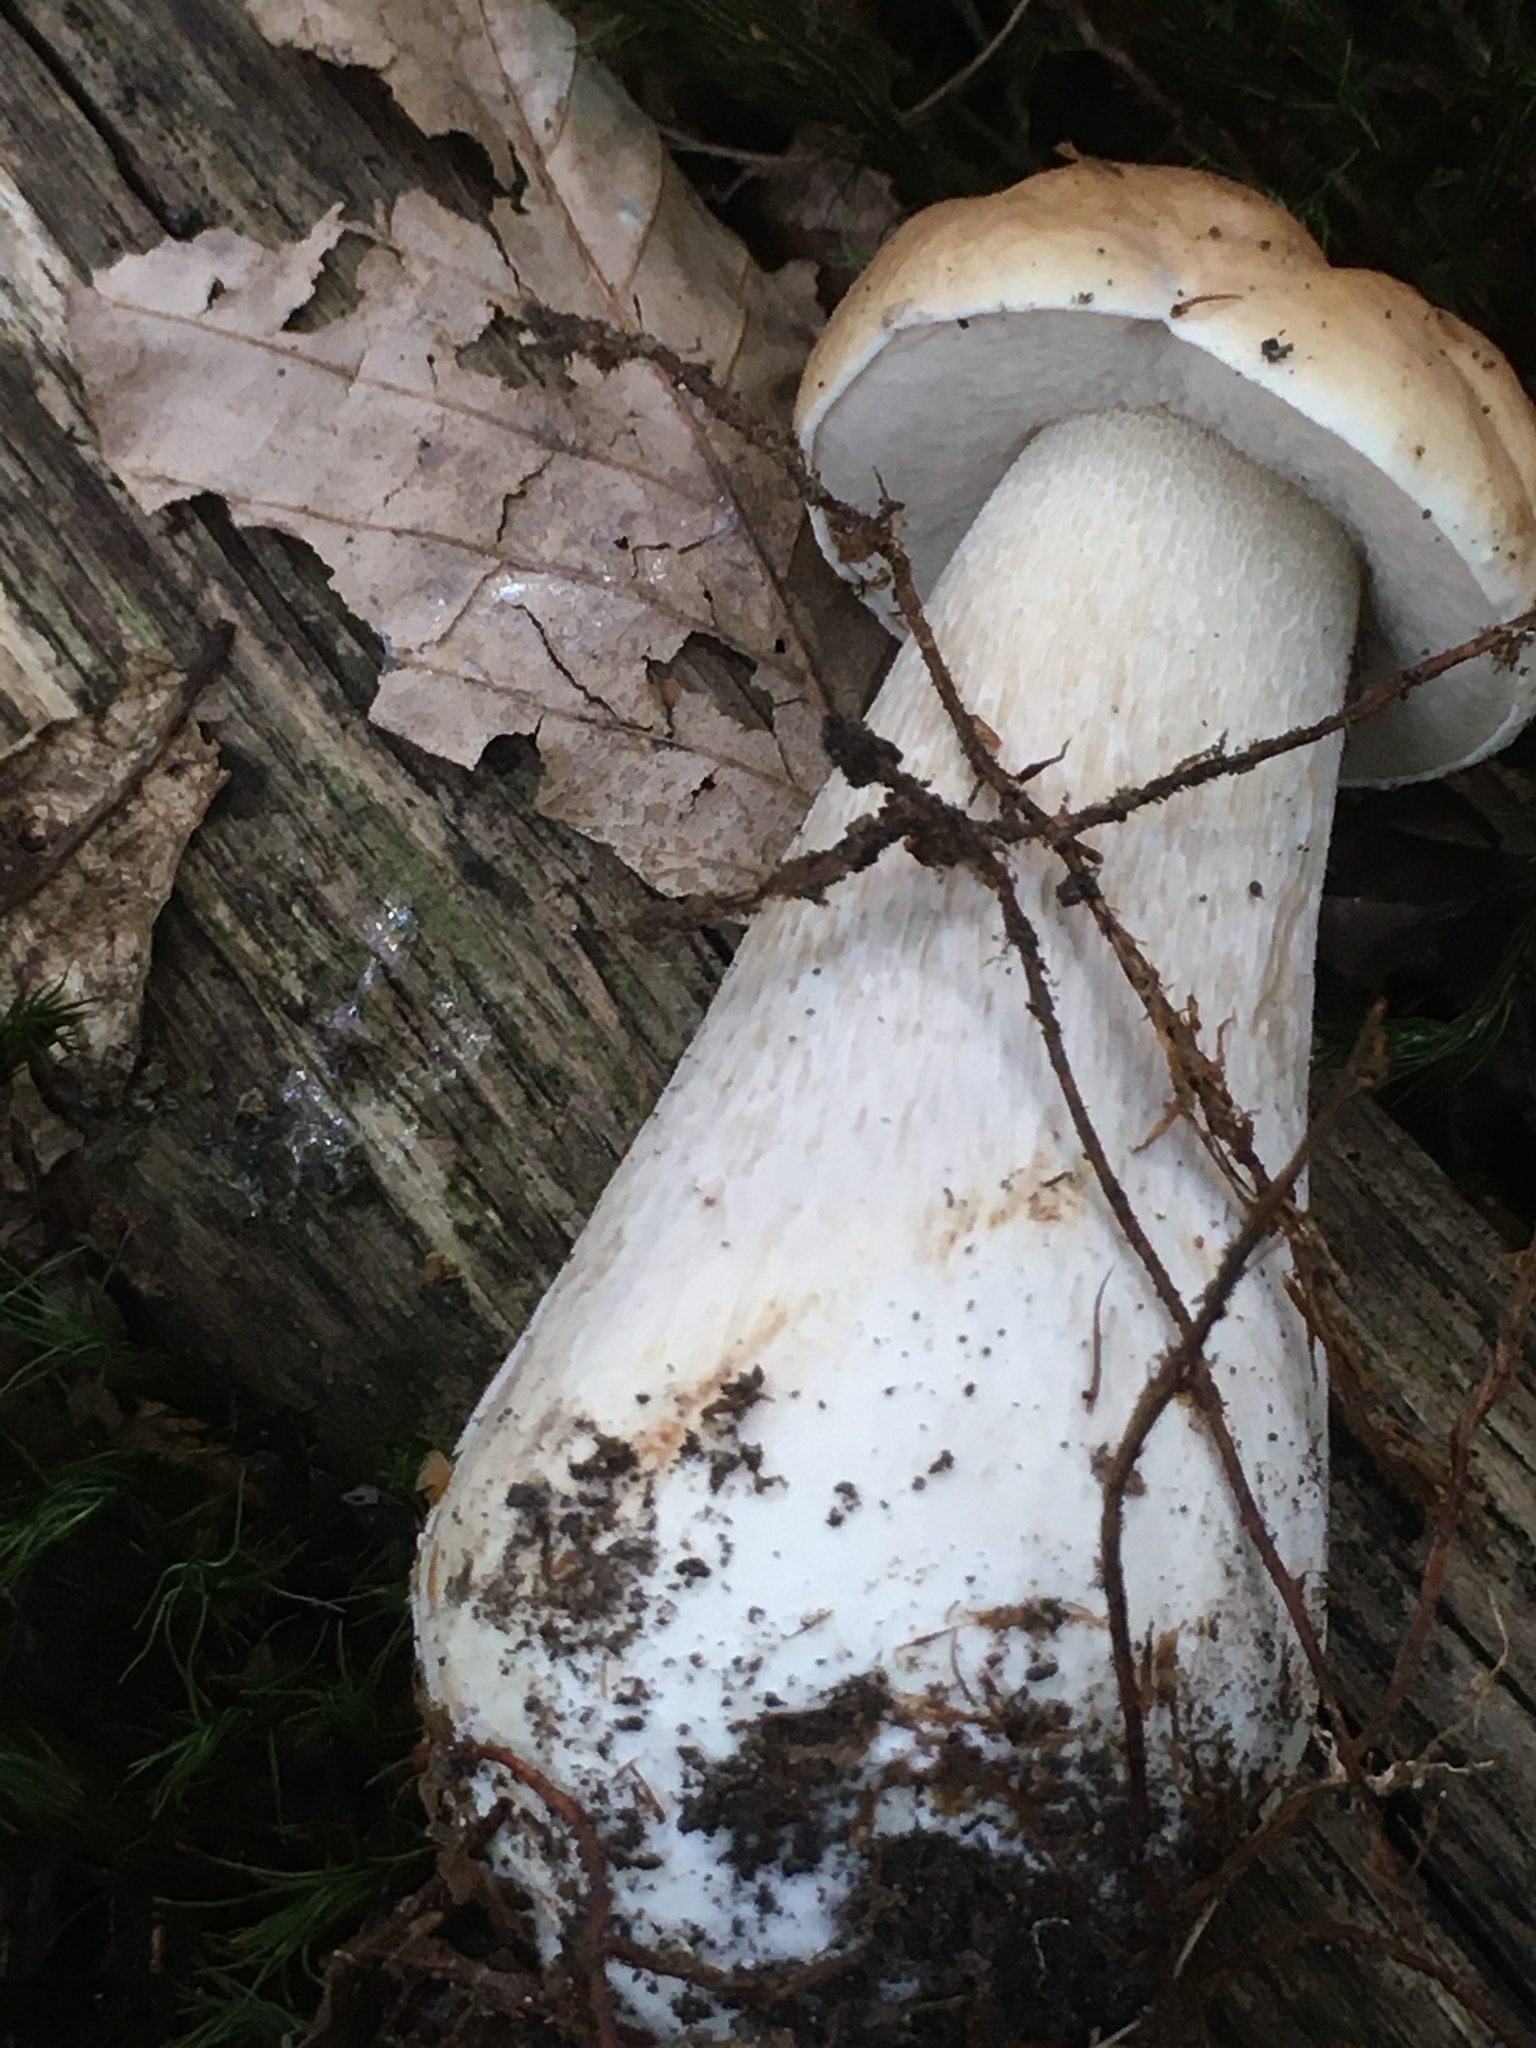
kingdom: Fungi
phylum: Basidiomycota
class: Agaricomycetes
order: Boletales
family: Boletaceae
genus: Boletus
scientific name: Boletus edulis
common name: Cep
